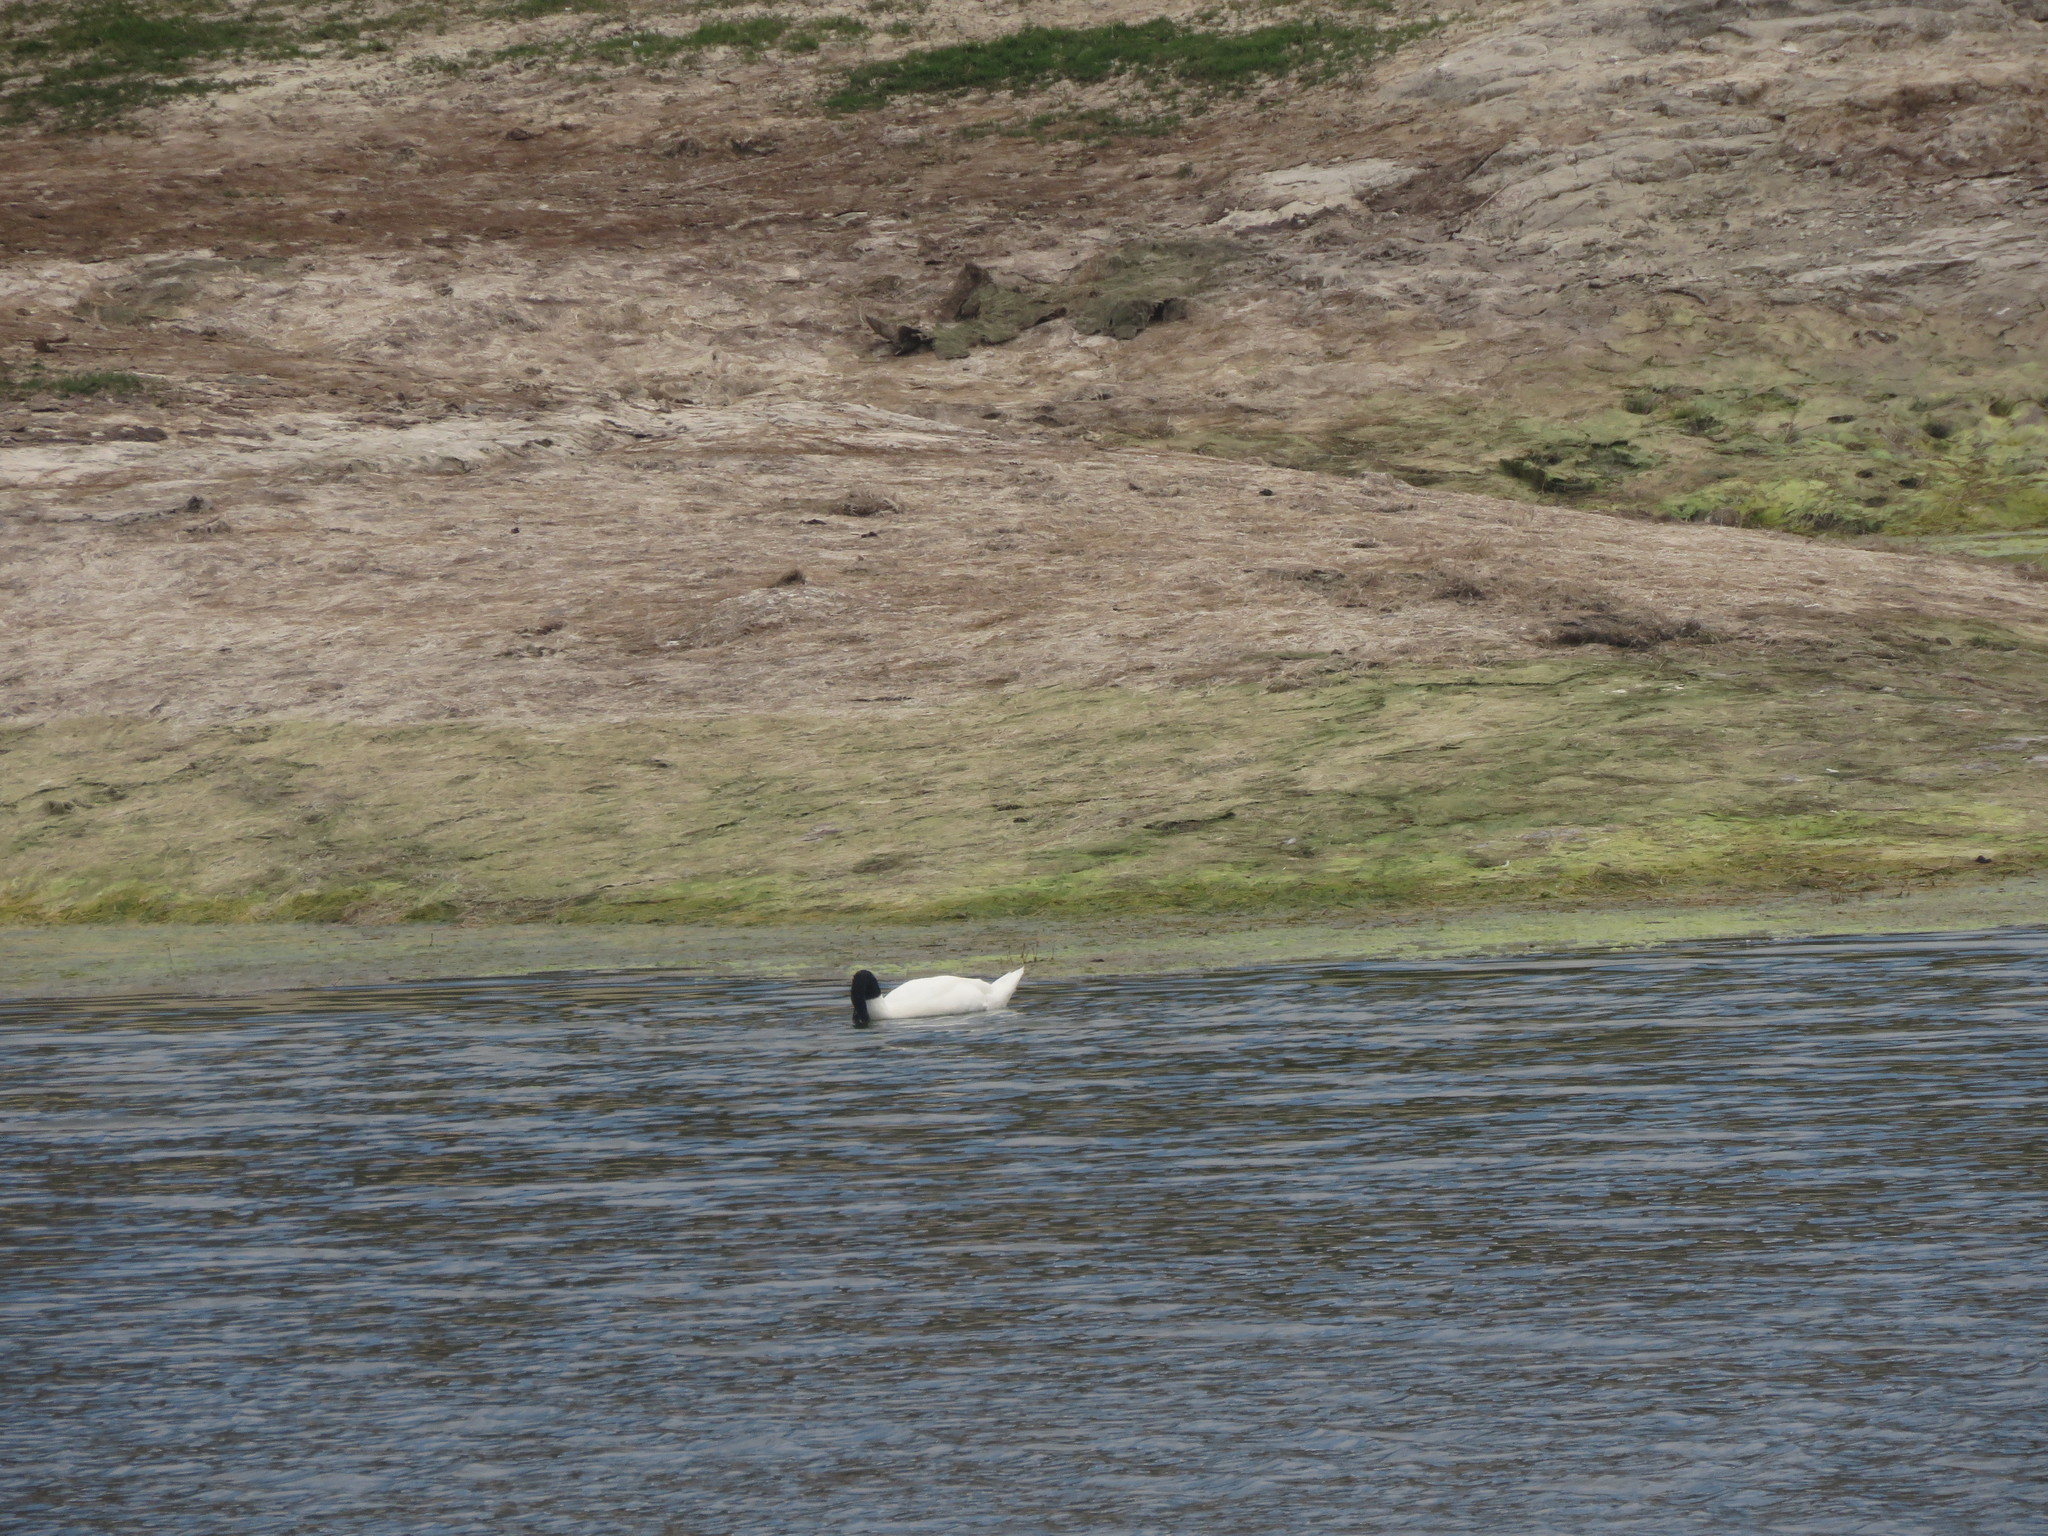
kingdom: Animalia
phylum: Chordata
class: Aves
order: Anseriformes
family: Anatidae
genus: Cygnus
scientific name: Cygnus melancoryphus
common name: Black-necked swan
